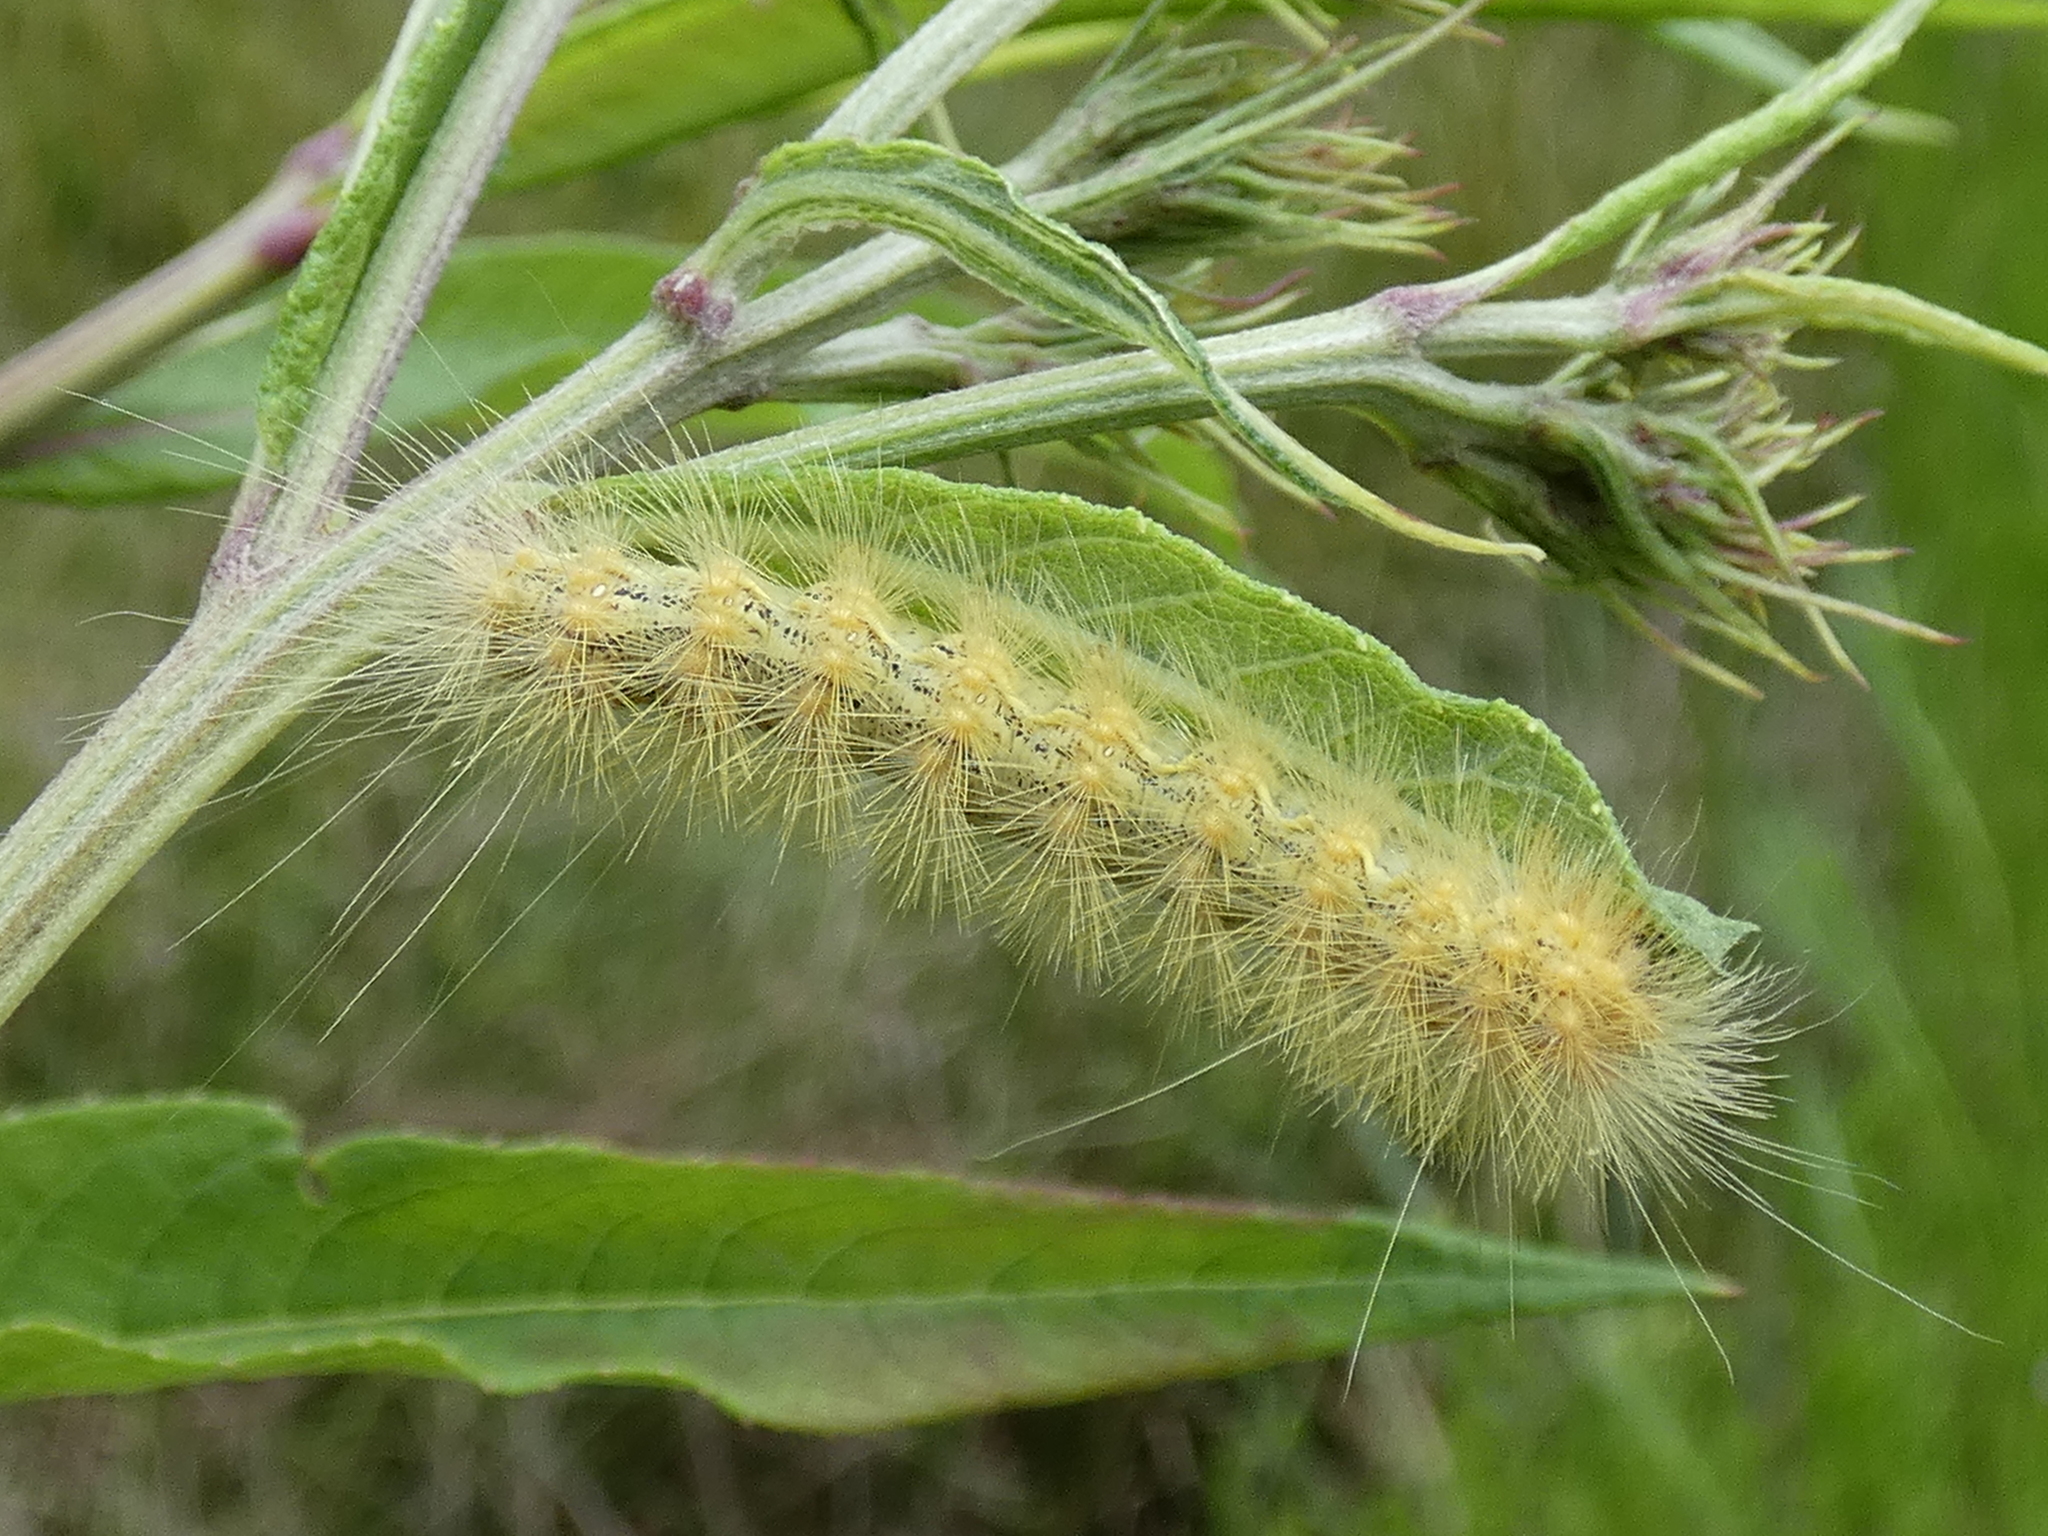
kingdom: Animalia
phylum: Arthropoda
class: Insecta
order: Lepidoptera
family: Erebidae
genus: Estigmene
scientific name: Estigmene acrea
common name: Salt marsh moth
